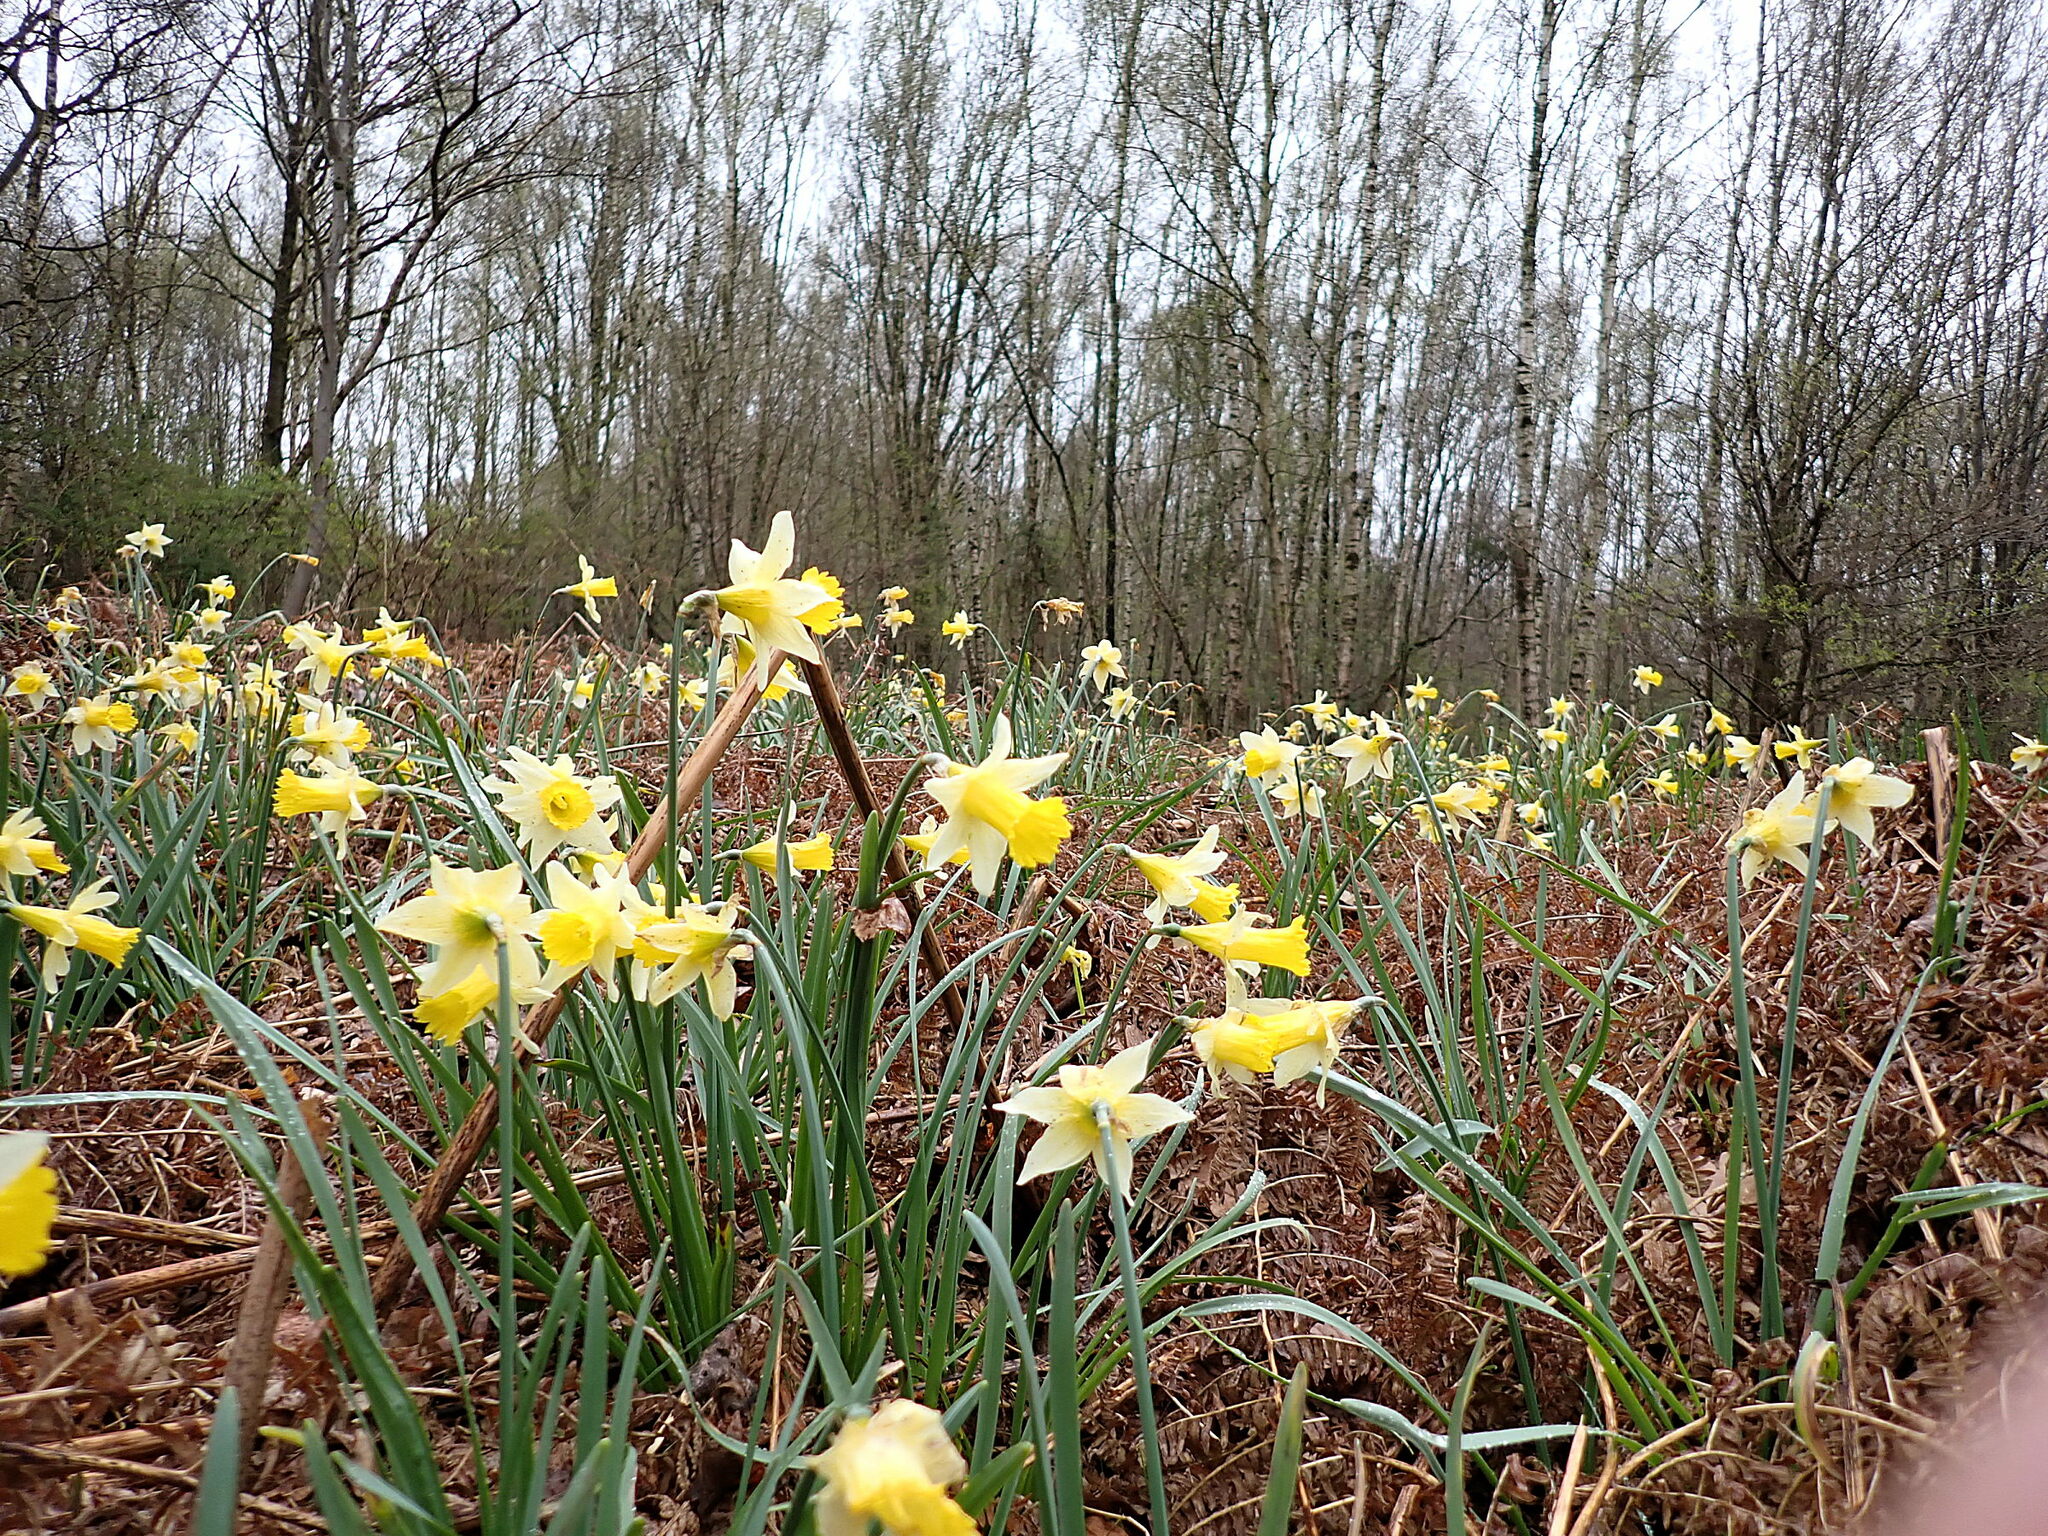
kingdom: Plantae
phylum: Tracheophyta
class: Liliopsida
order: Asparagales
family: Amaryllidaceae
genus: Narcissus
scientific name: Narcissus pseudonarcissus
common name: Daffodil
